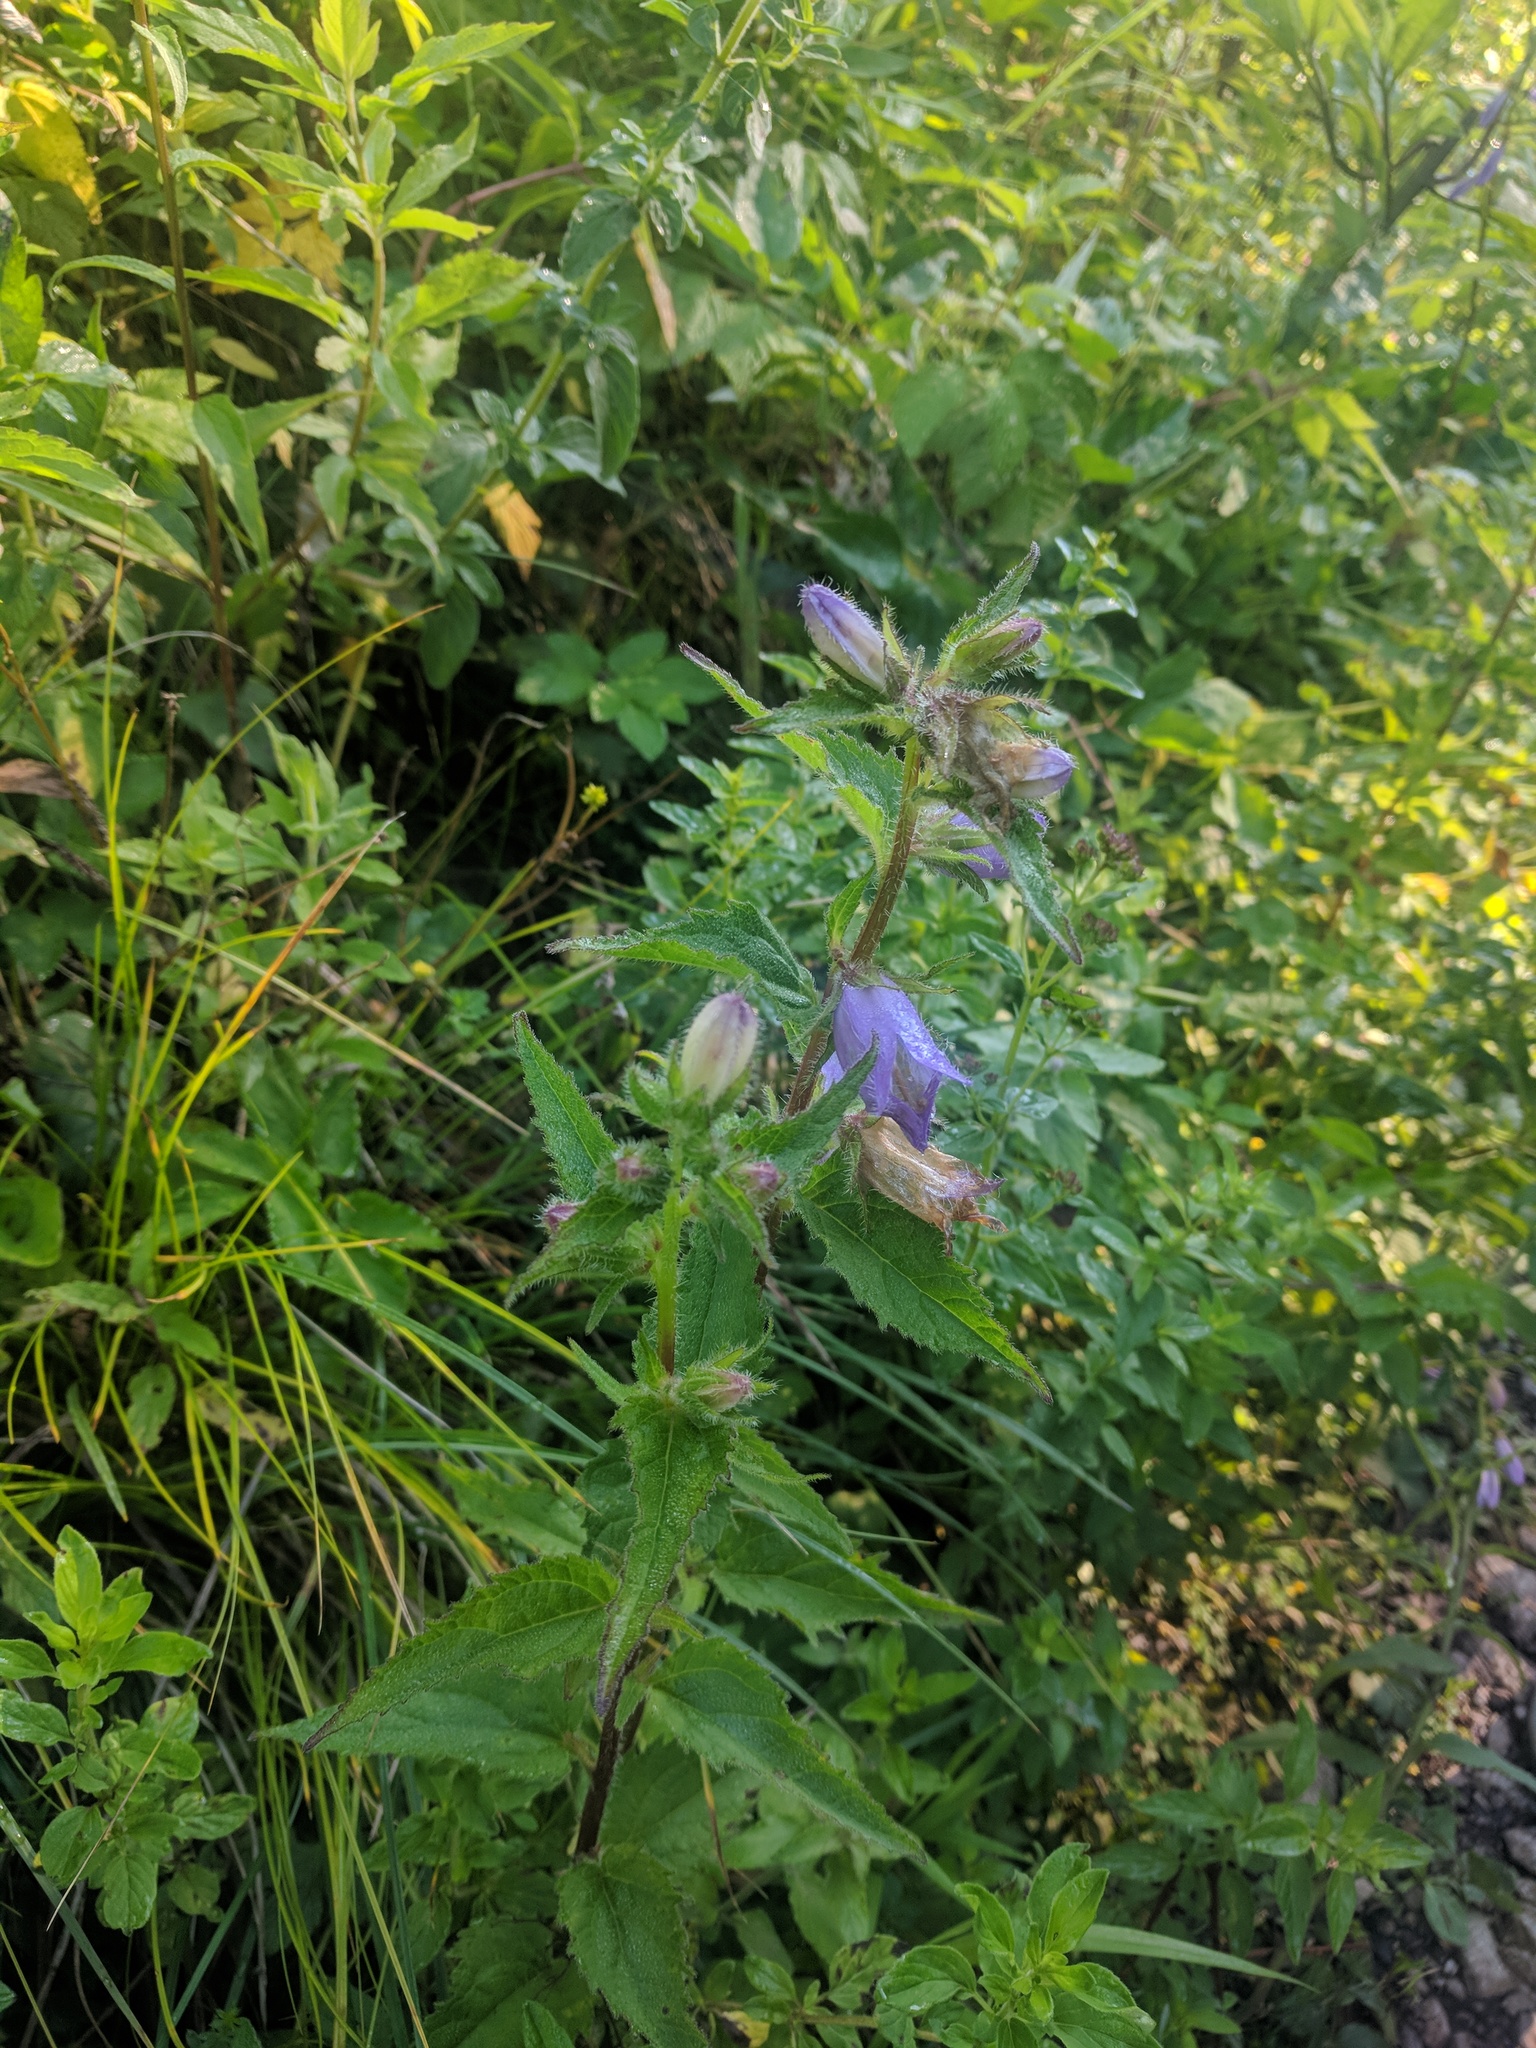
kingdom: Plantae
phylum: Tracheophyta
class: Magnoliopsida
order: Asterales
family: Campanulaceae
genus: Campanula
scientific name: Campanula trachelium
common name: Nettle-leaved bellflower
